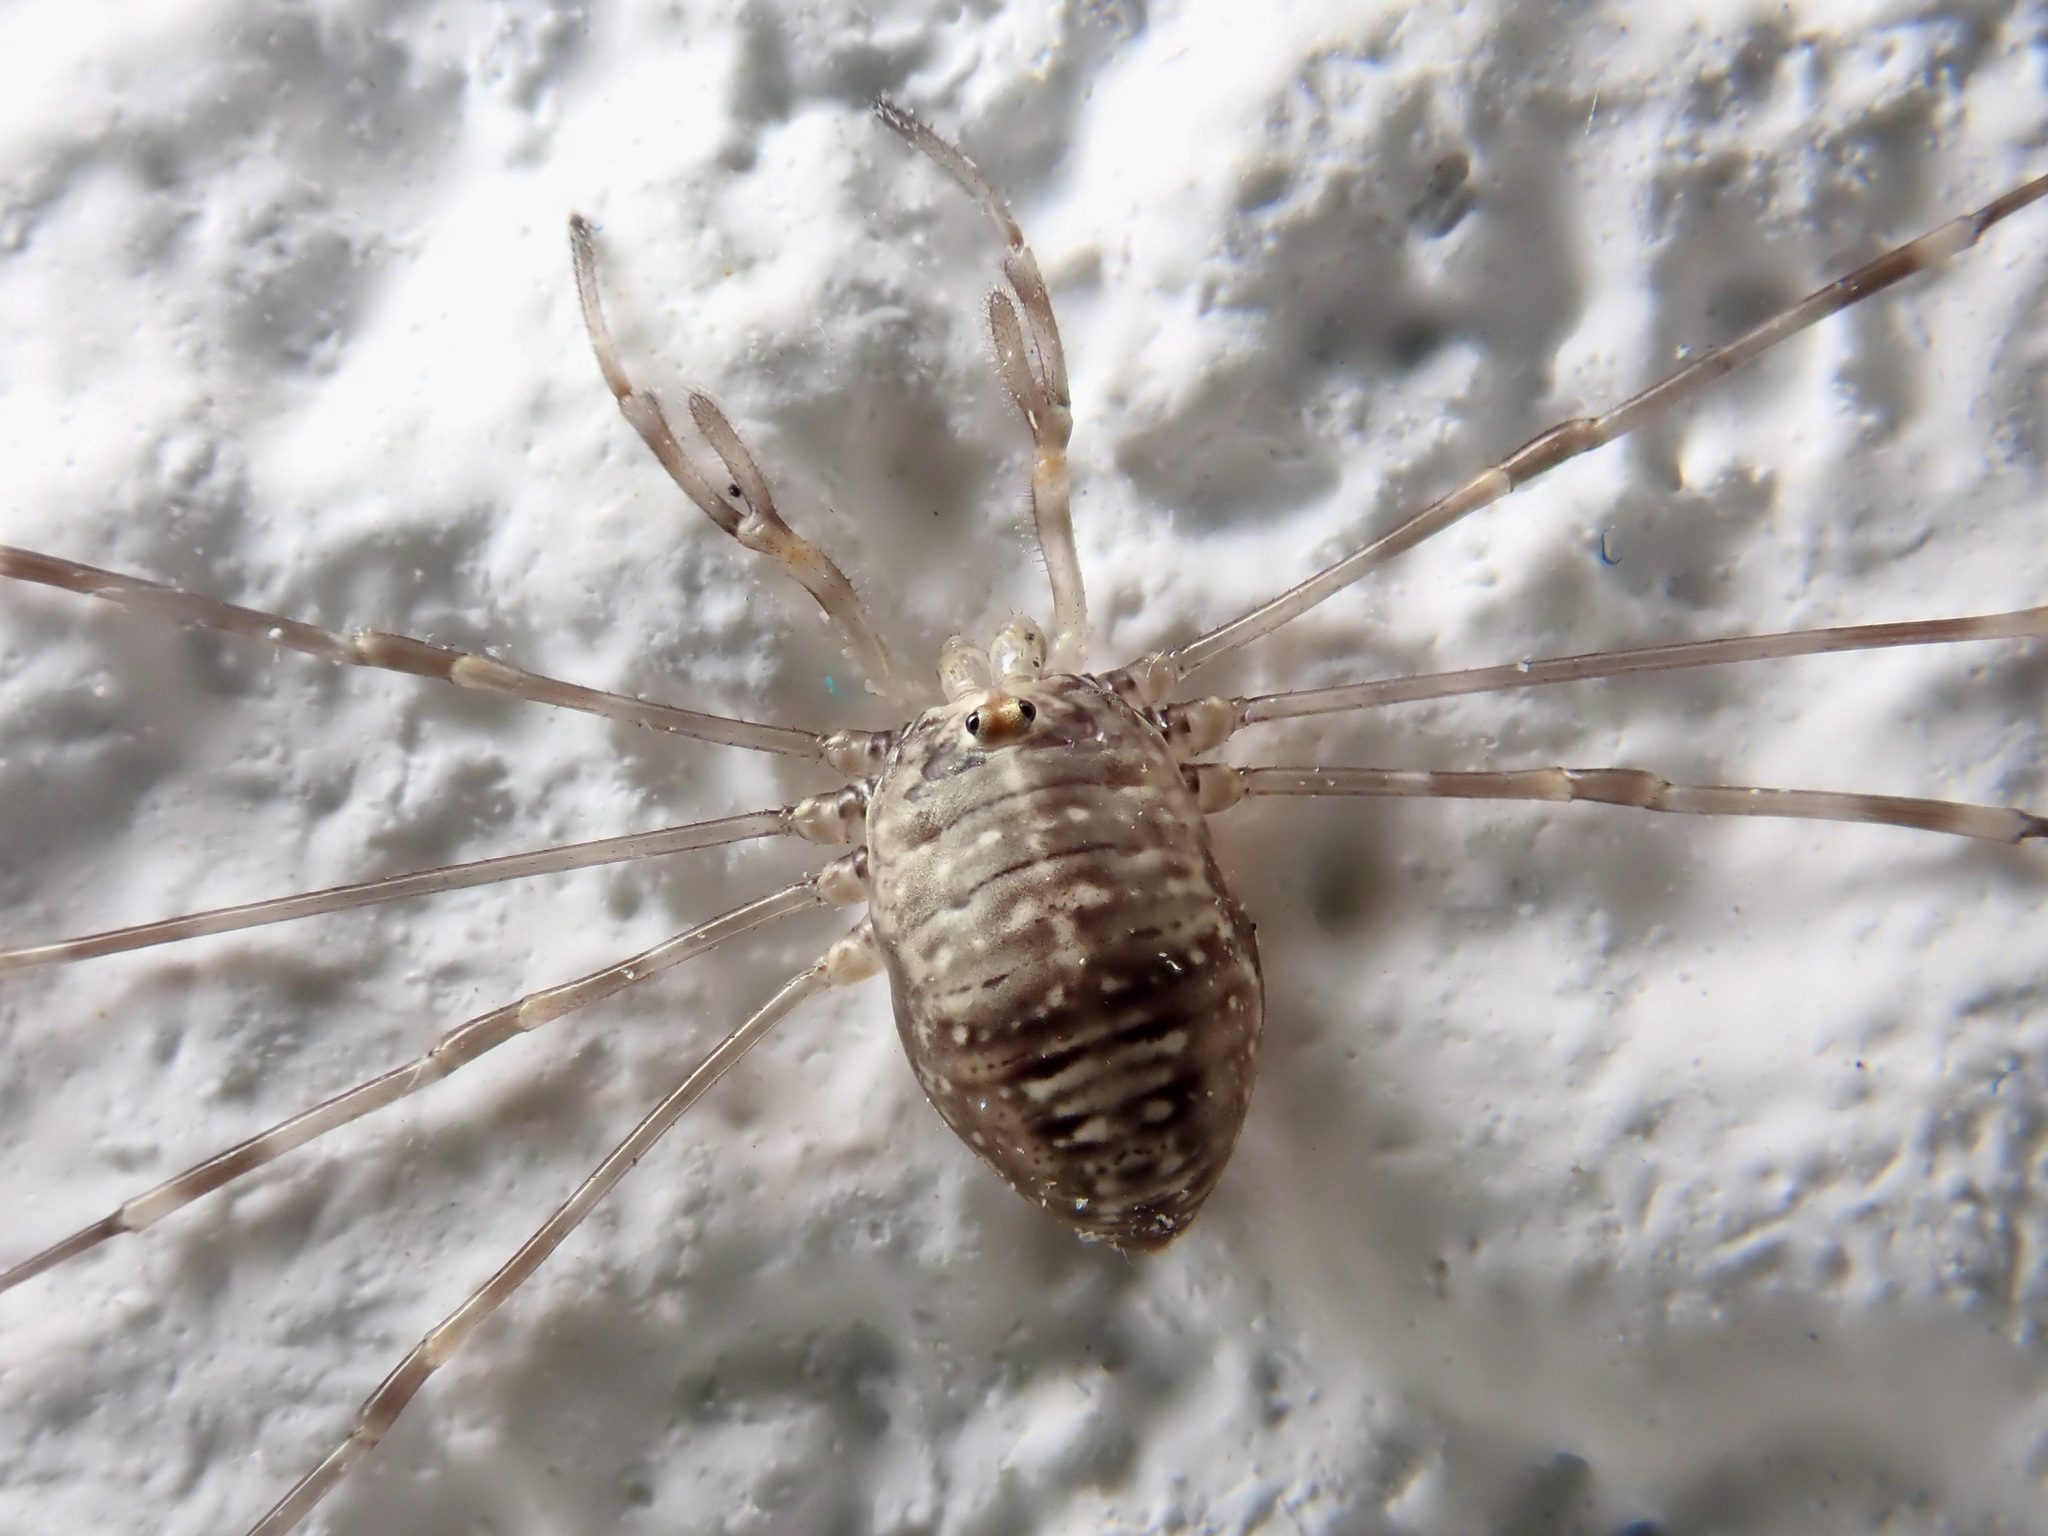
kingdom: Animalia
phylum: Arthropoda
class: Arachnida
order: Opiliones
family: Phalangiidae
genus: Dicranopalpus
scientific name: Dicranopalpus ramosus
